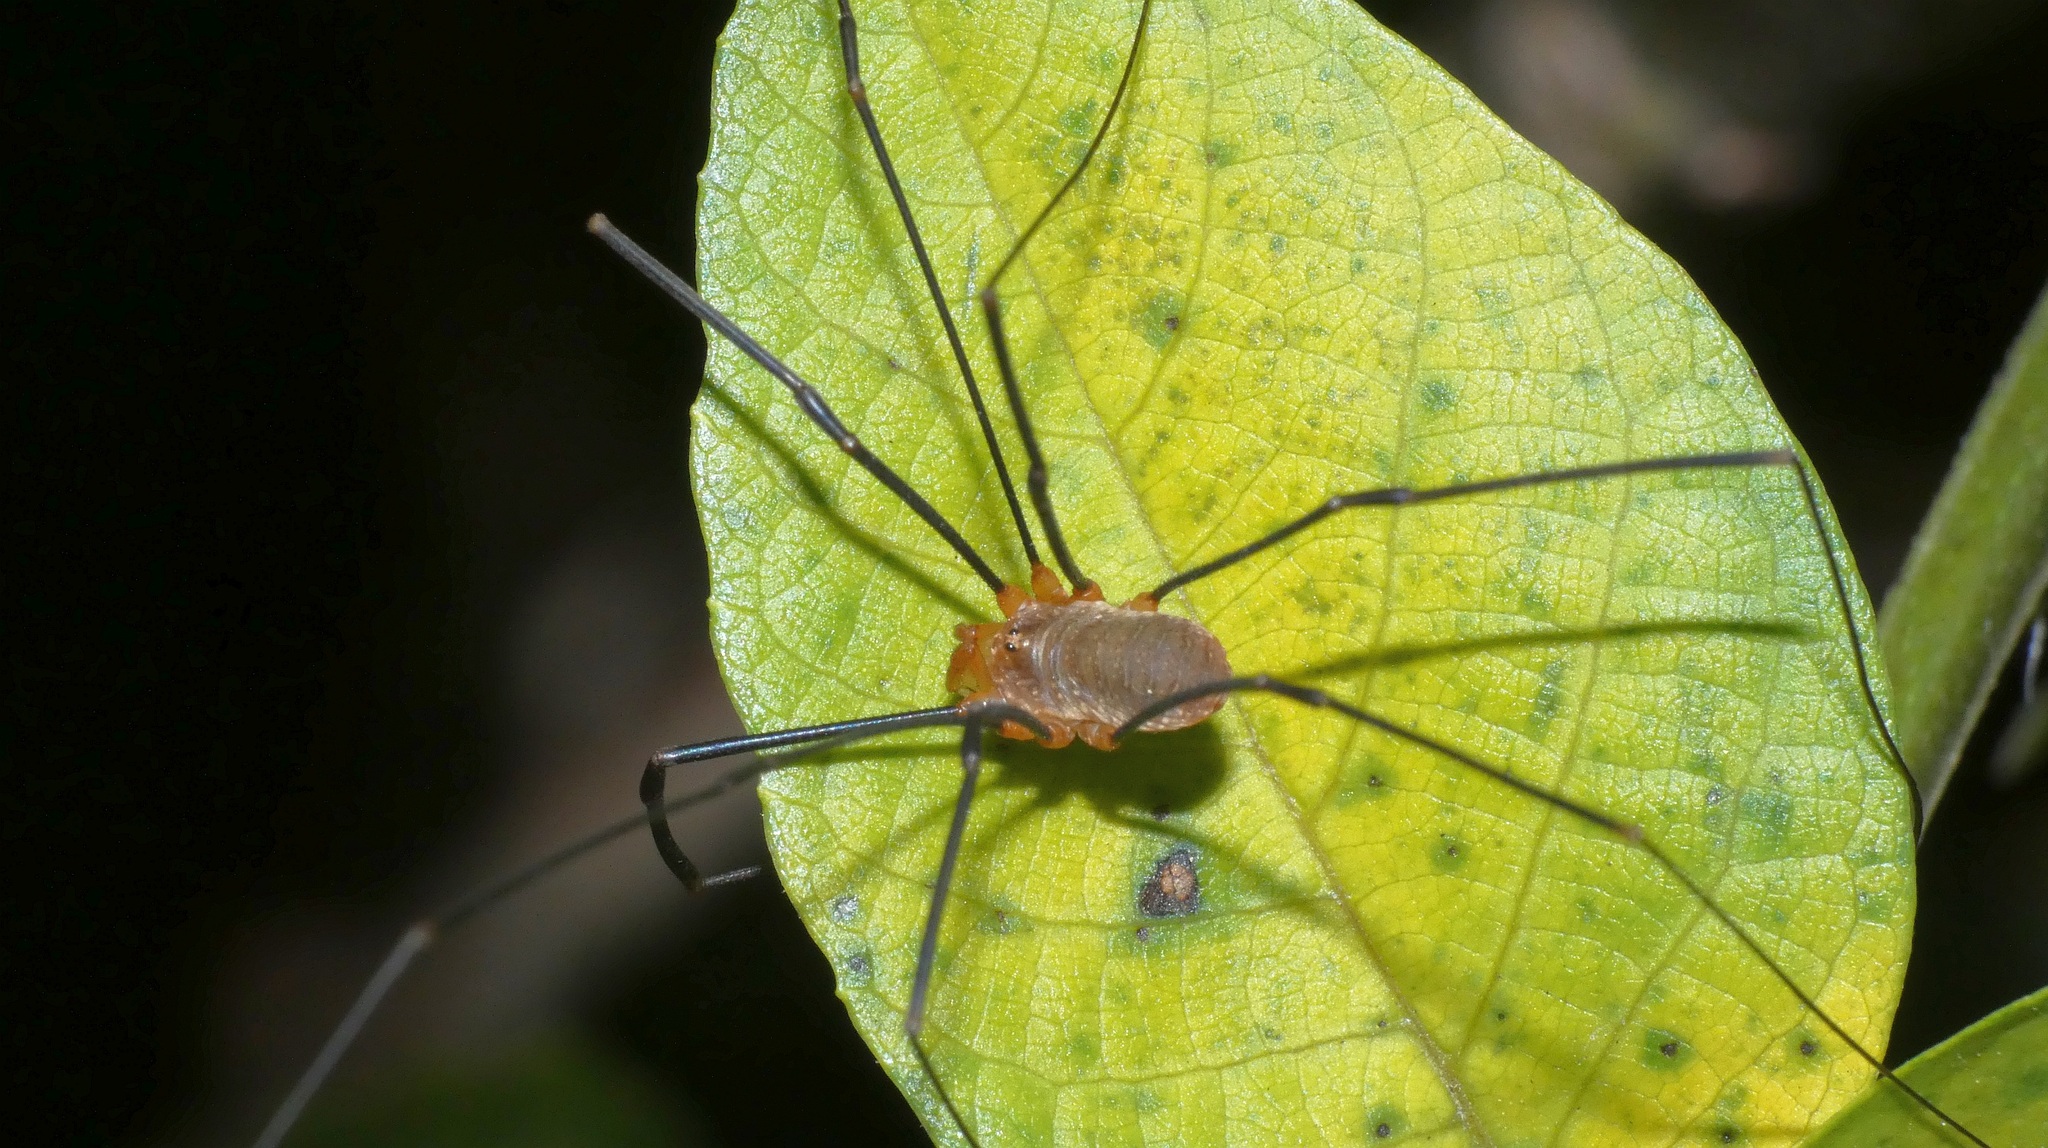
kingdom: Animalia
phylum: Arthropoda
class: Arachnida
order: Opiliones
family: Phalangiidae
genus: Opilio
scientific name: Opilio canestrinii
